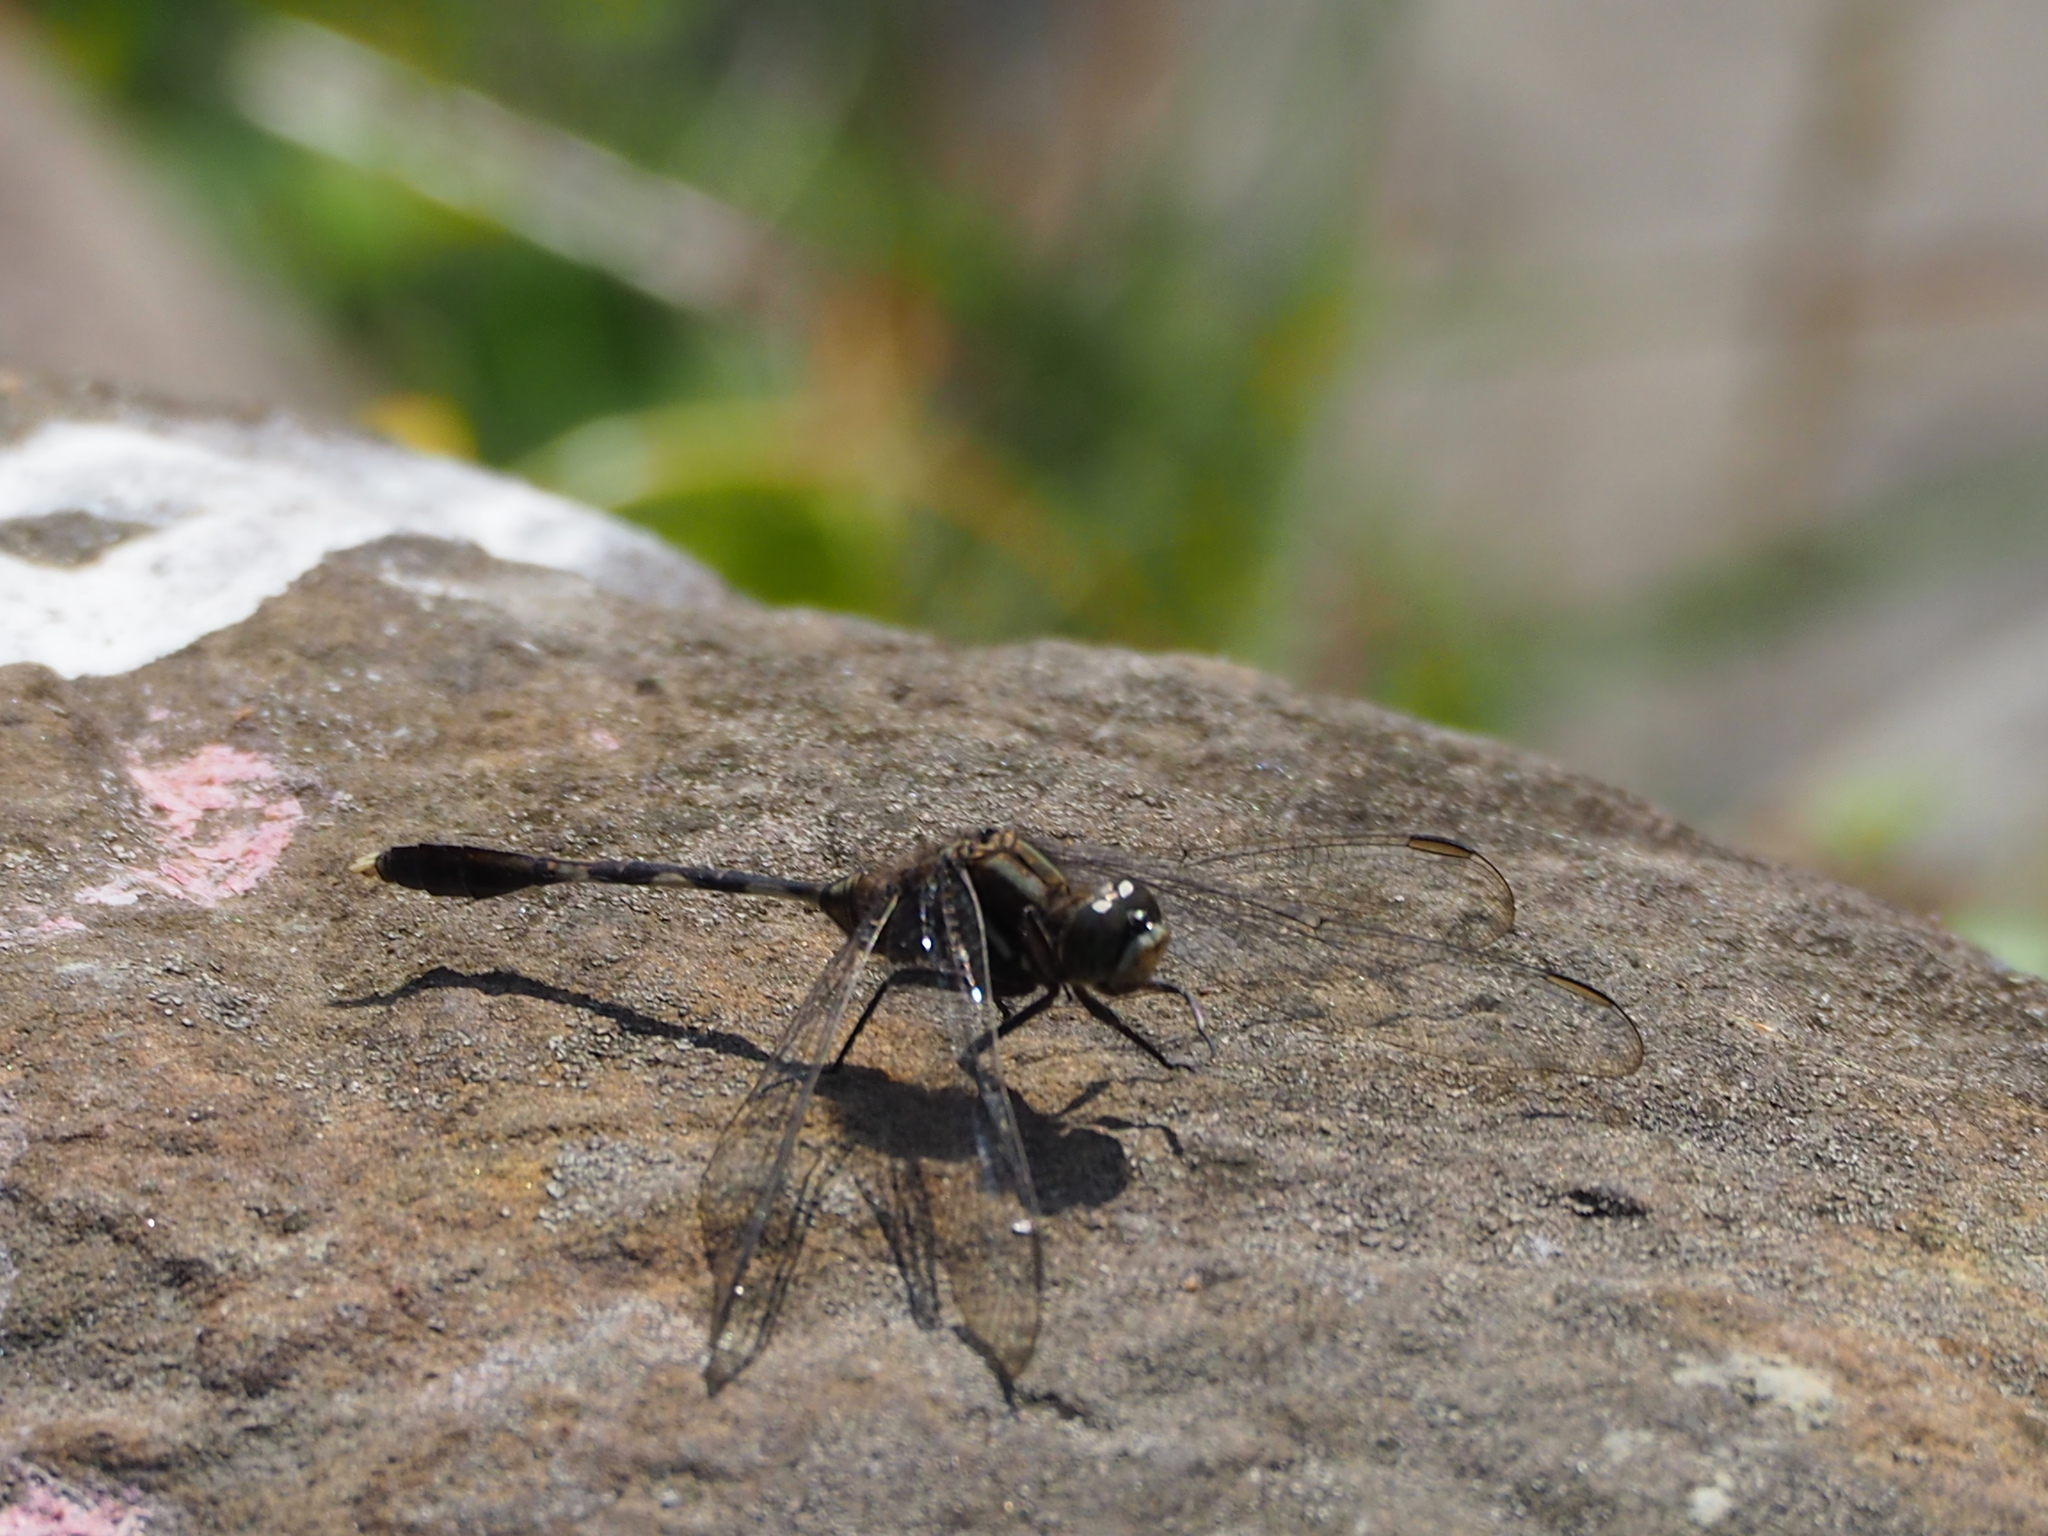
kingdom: Animalia
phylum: Arthropoda
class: Insecta
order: Odonata
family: Libellulidae
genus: Orthetrum
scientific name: Orthetrum sabina
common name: Slender skimmer
